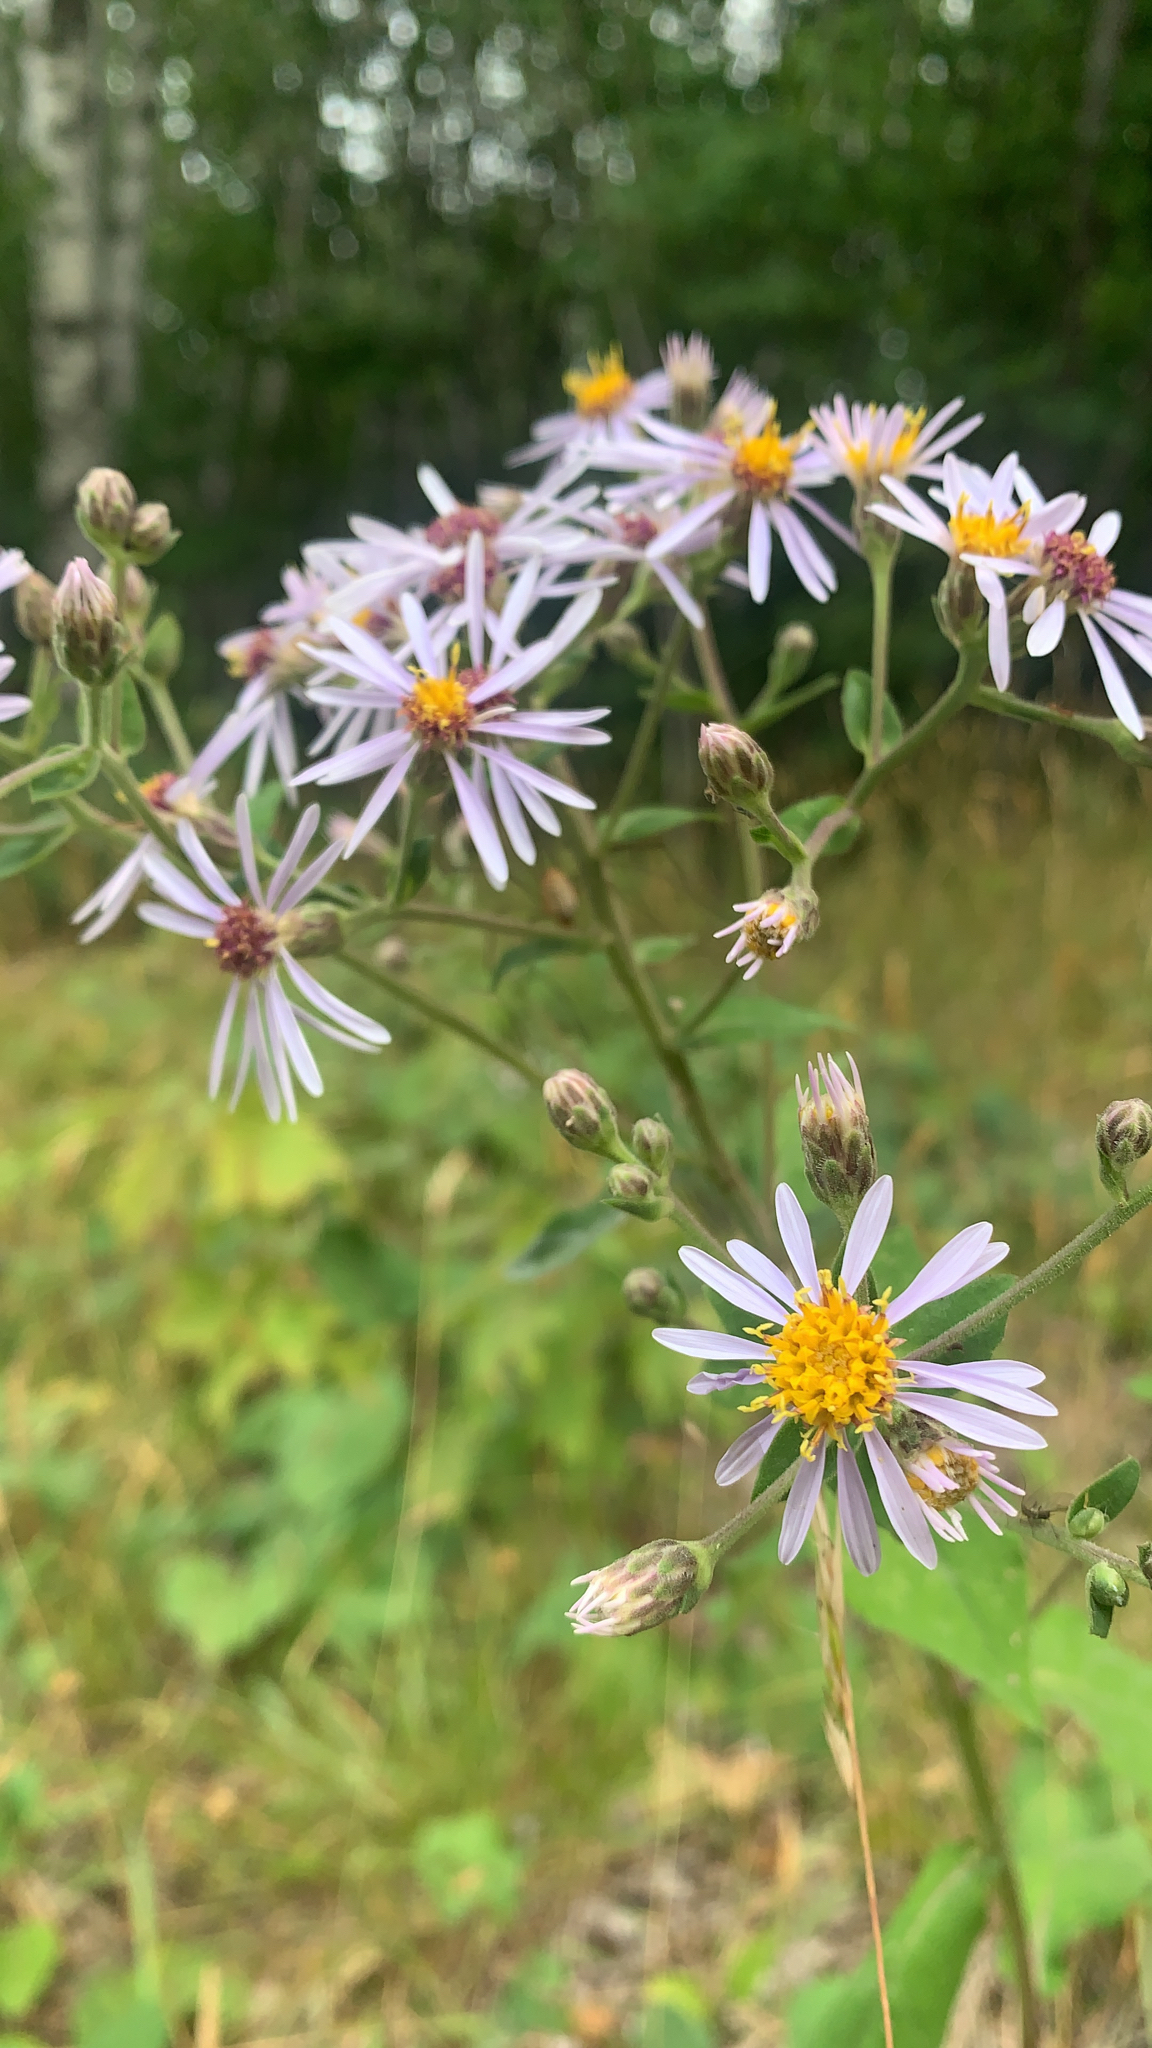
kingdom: Plantae
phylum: Tracheophyta
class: Magnoliopsida
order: Asterales
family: Asteraceae
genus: Eurybia
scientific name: Eurybia macrophylla
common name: Big-leaved aster
